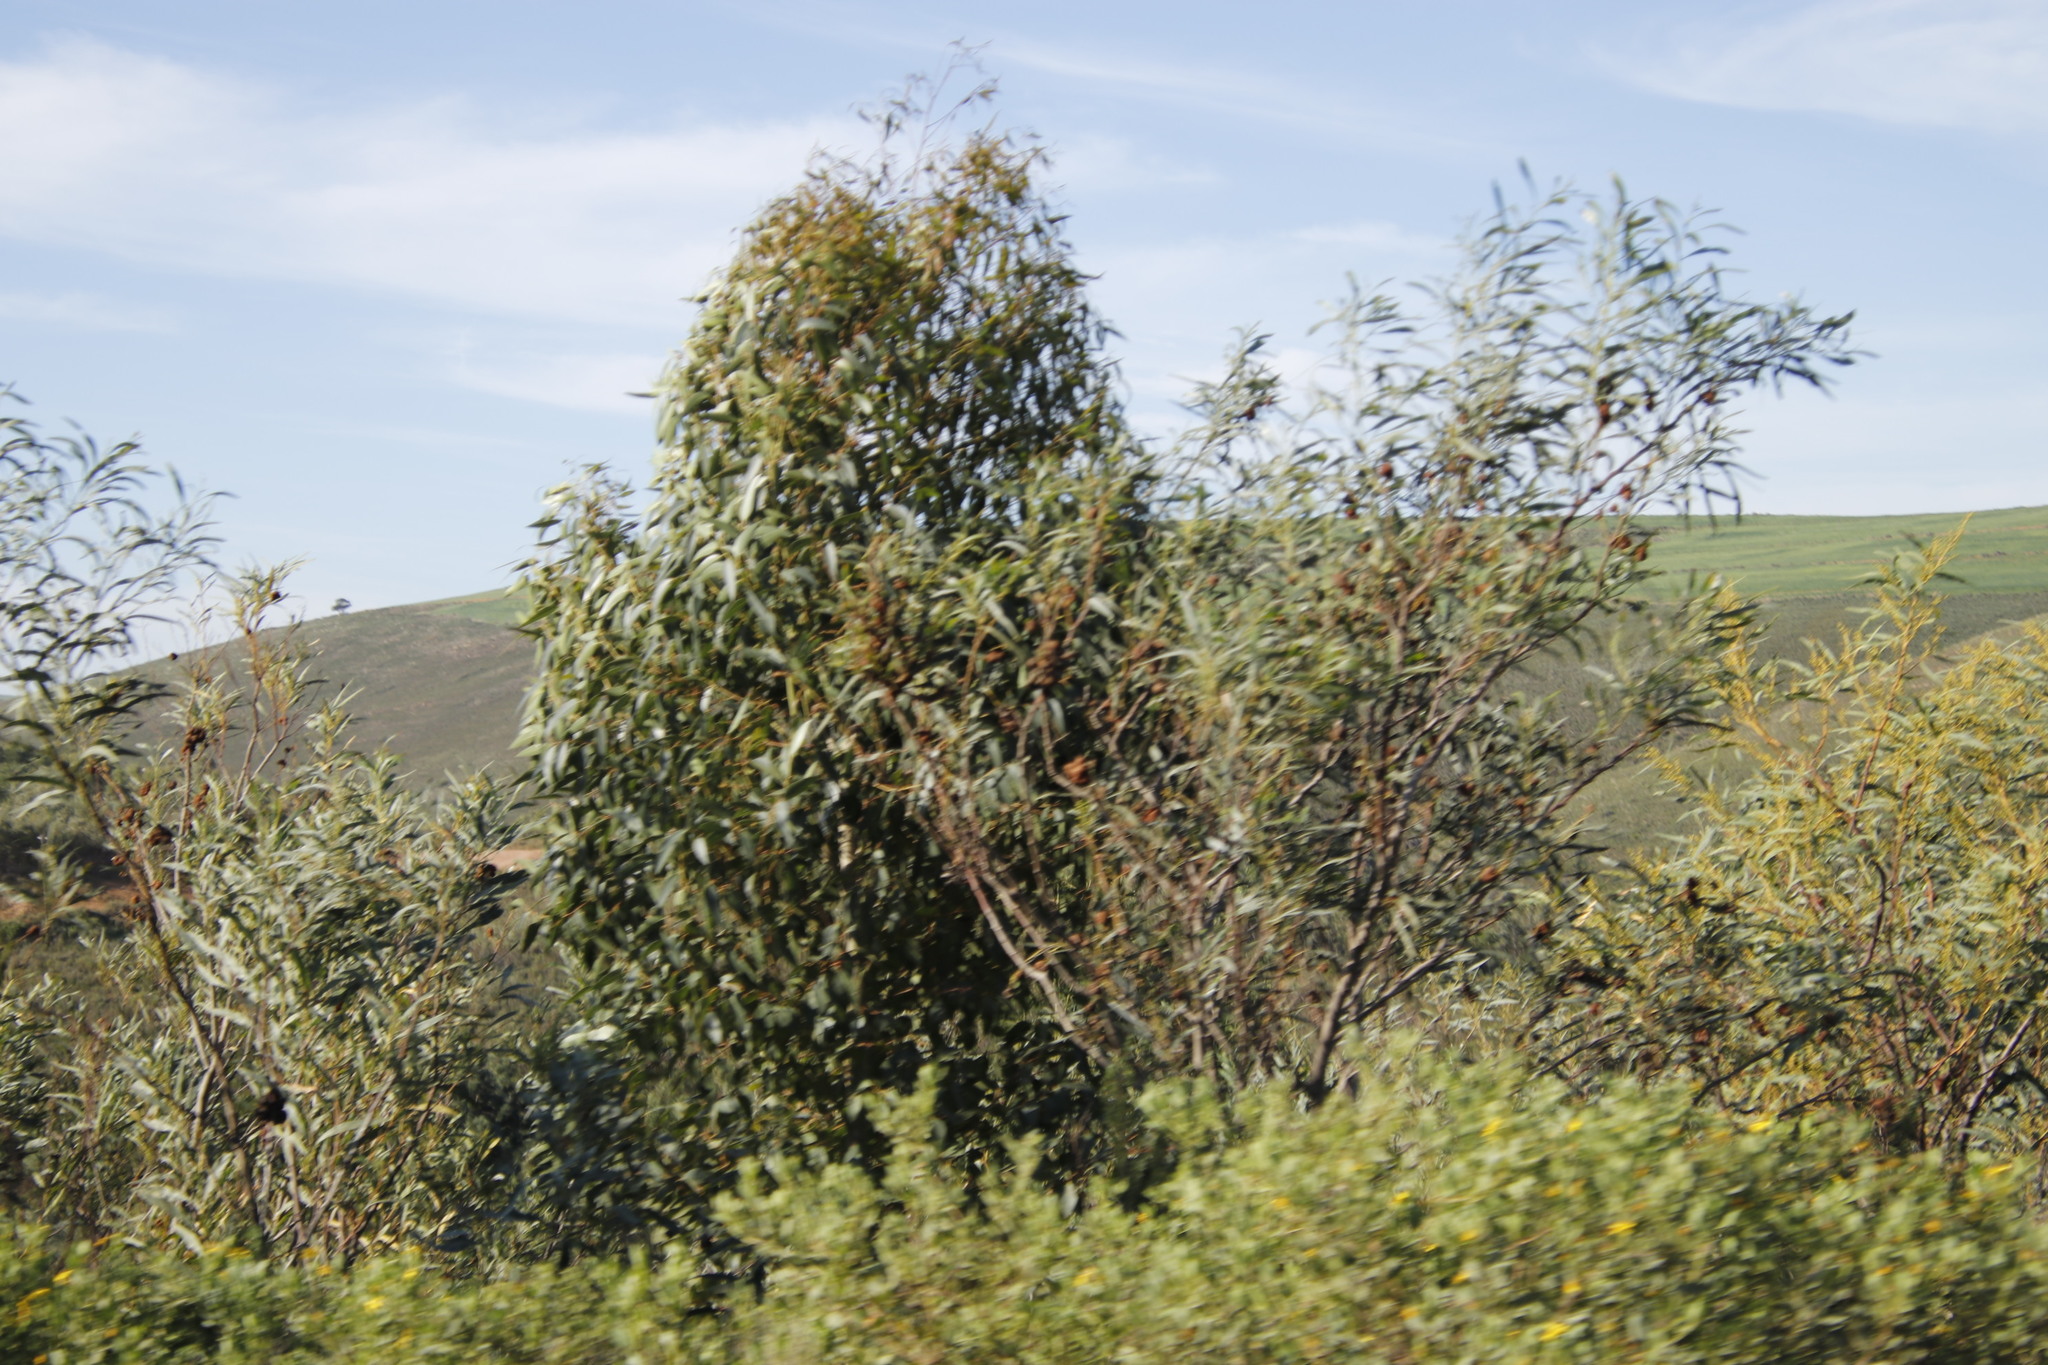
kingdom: Plantae
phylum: Tracheophyta
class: Magnoliopsida
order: Fabales
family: Fabaceae
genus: Acacia
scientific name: Acacia pycnantha
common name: Golden wattle
